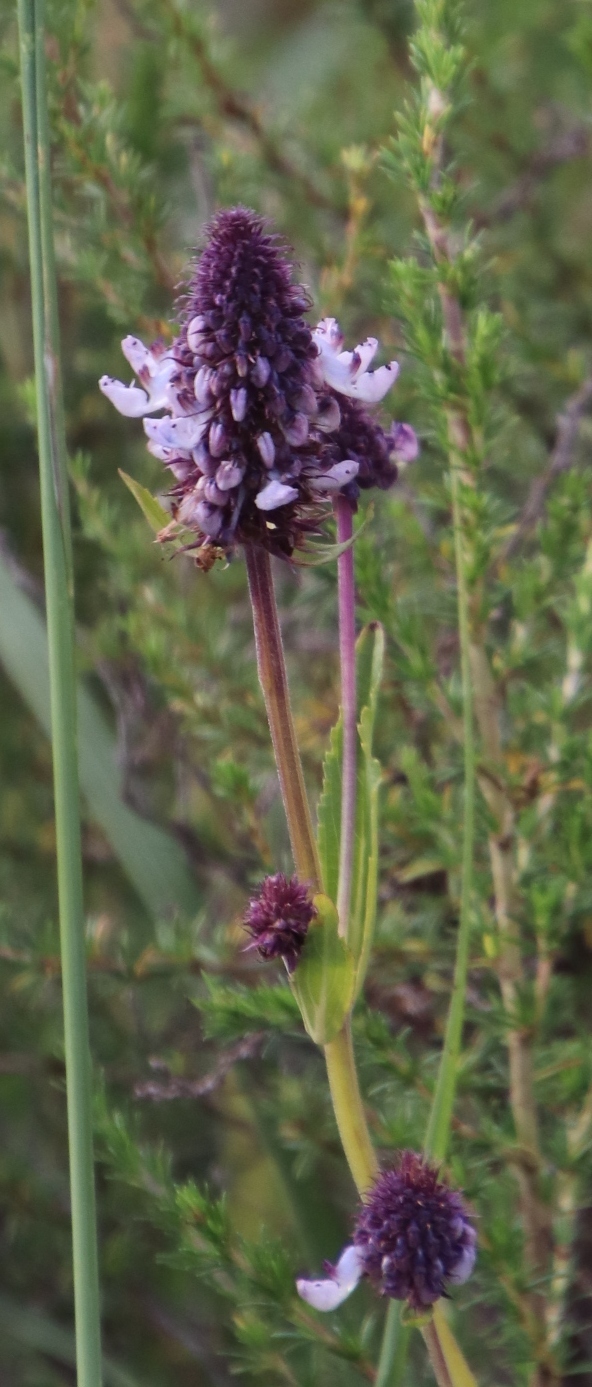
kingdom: Plantae
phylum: Tracheophyta
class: Magnoliopsida
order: Lamiales
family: Lamiaceae
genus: Coleus
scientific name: Coleus kirkii
